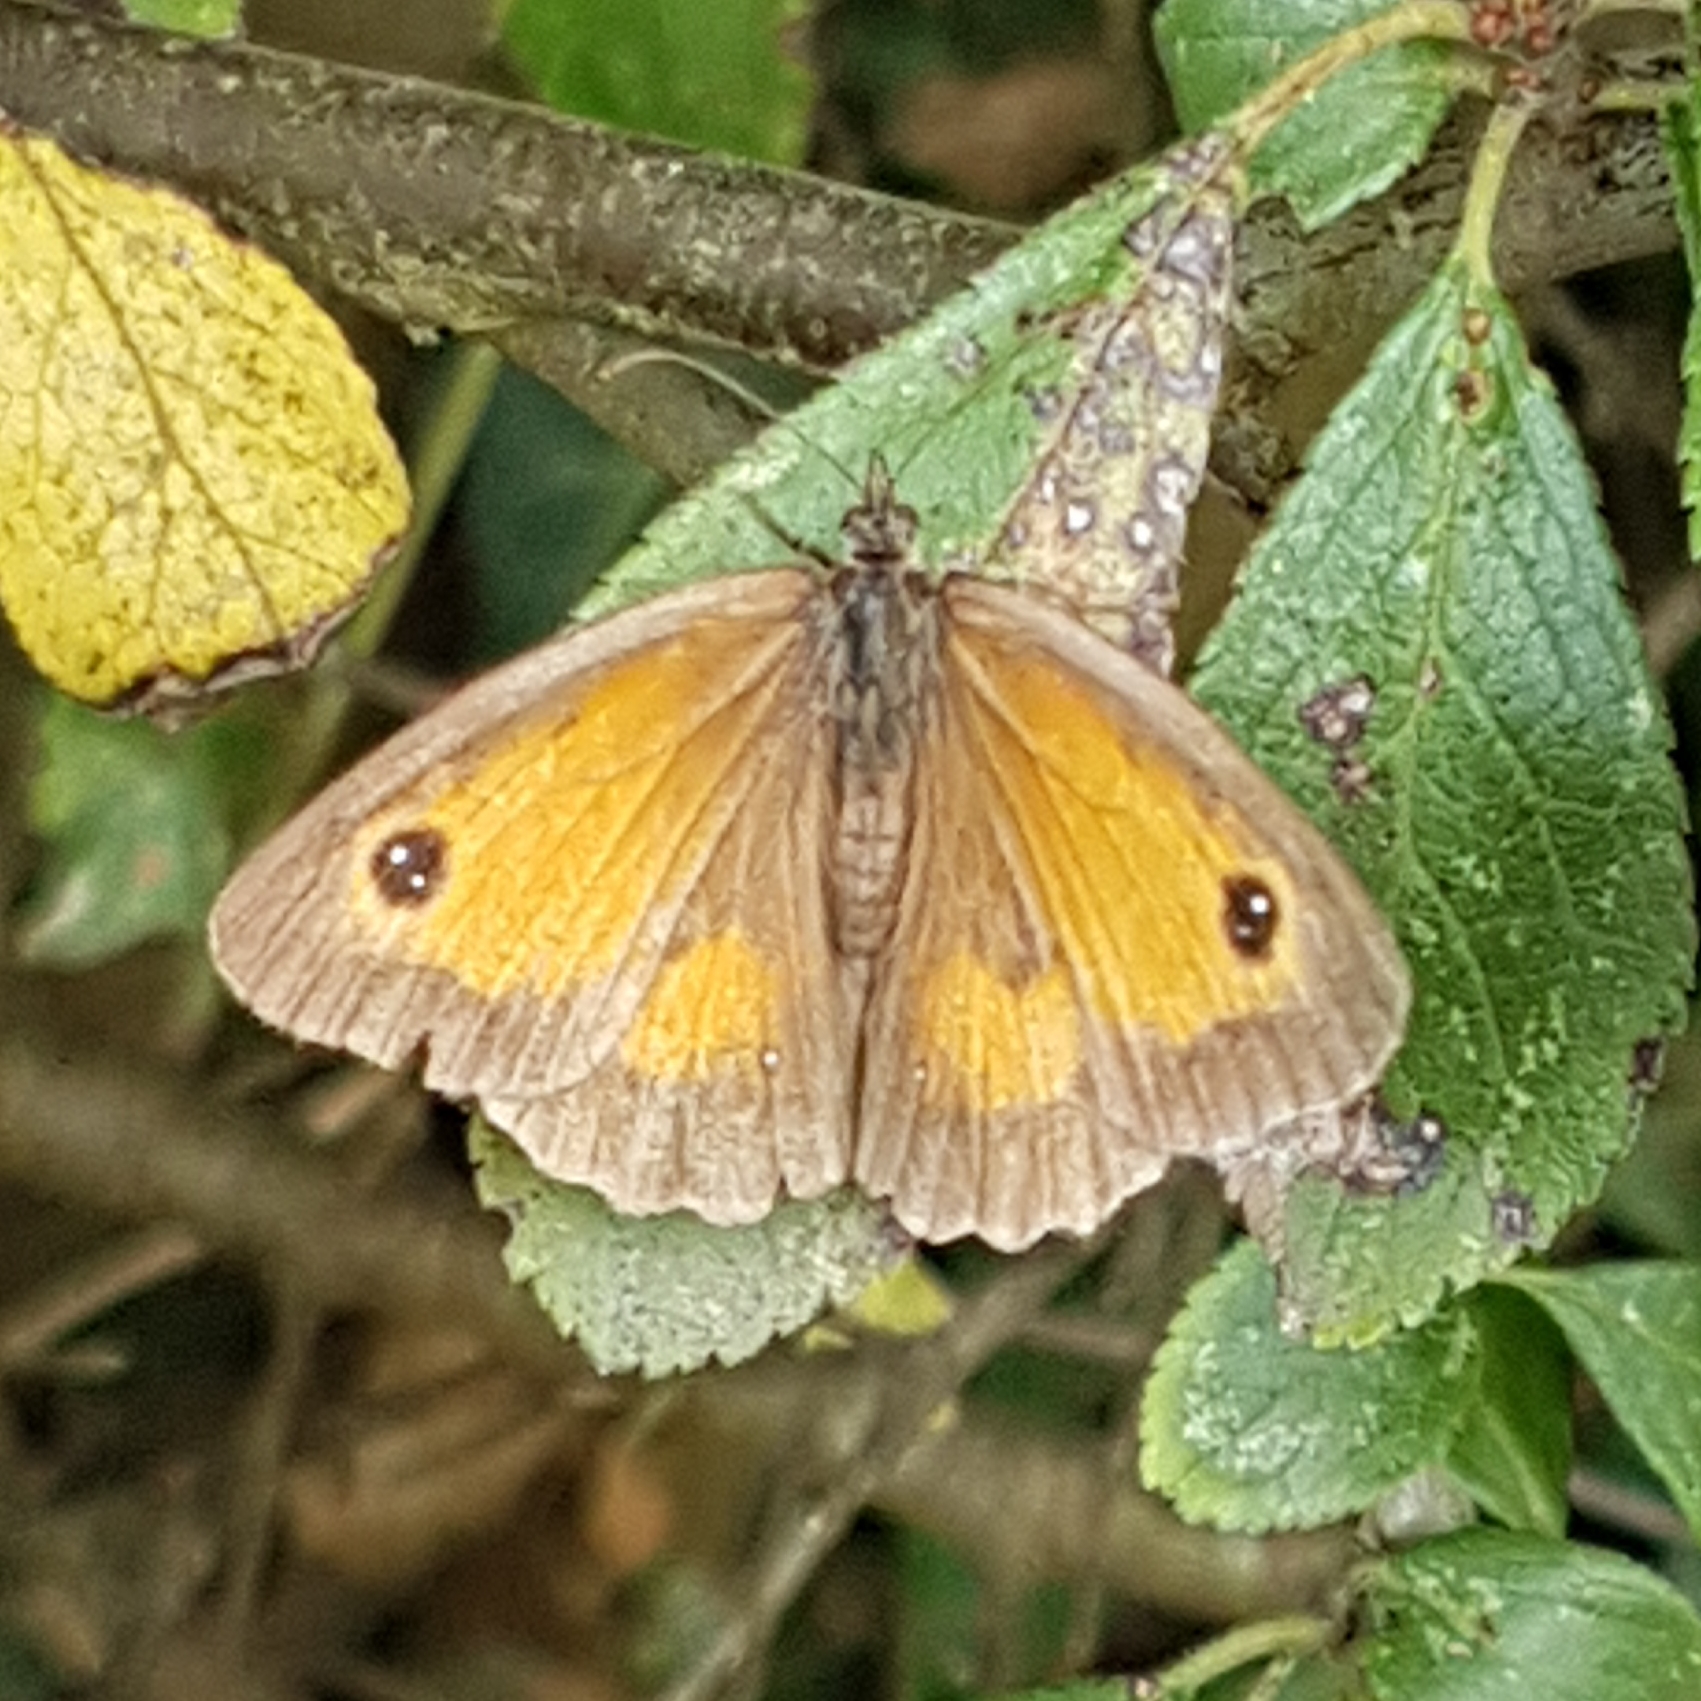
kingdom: Animalia
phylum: Arthropoda
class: Insecta
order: Lepidoptera
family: Nymphalidae
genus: Pyronia
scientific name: Pyronia tithonus
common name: Gatekeeper
